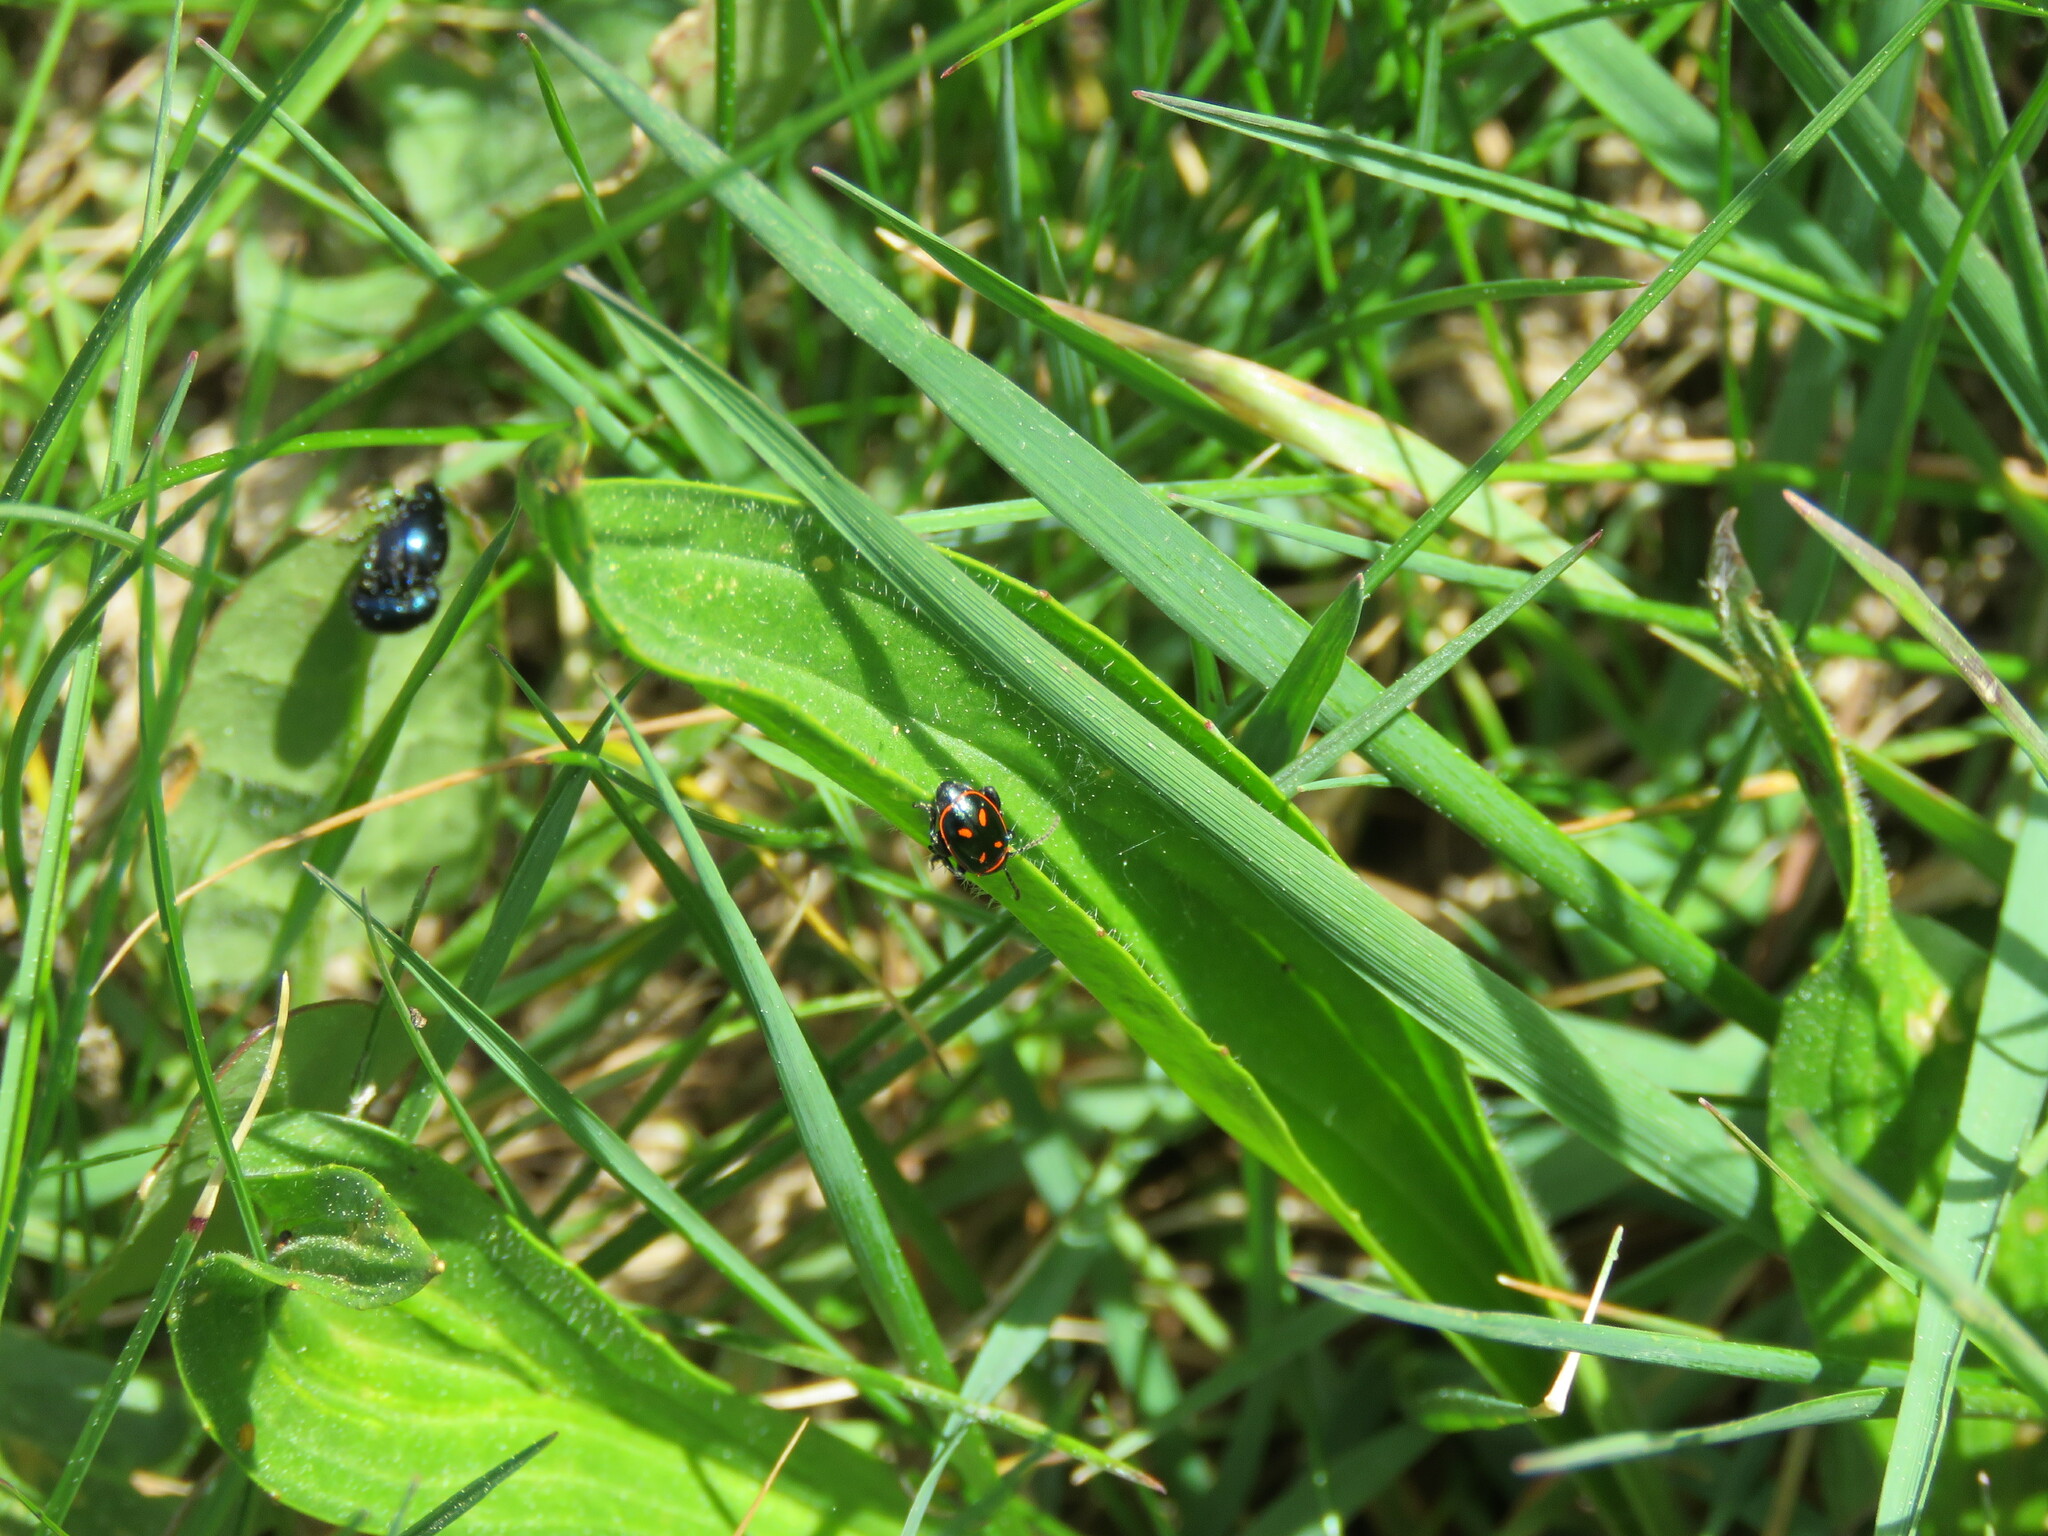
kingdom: Animalia
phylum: Arthropoda
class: Insecta
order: Coleoptera
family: Chrysomelidae
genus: Oedionychis
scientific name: Oedionychis cincta
